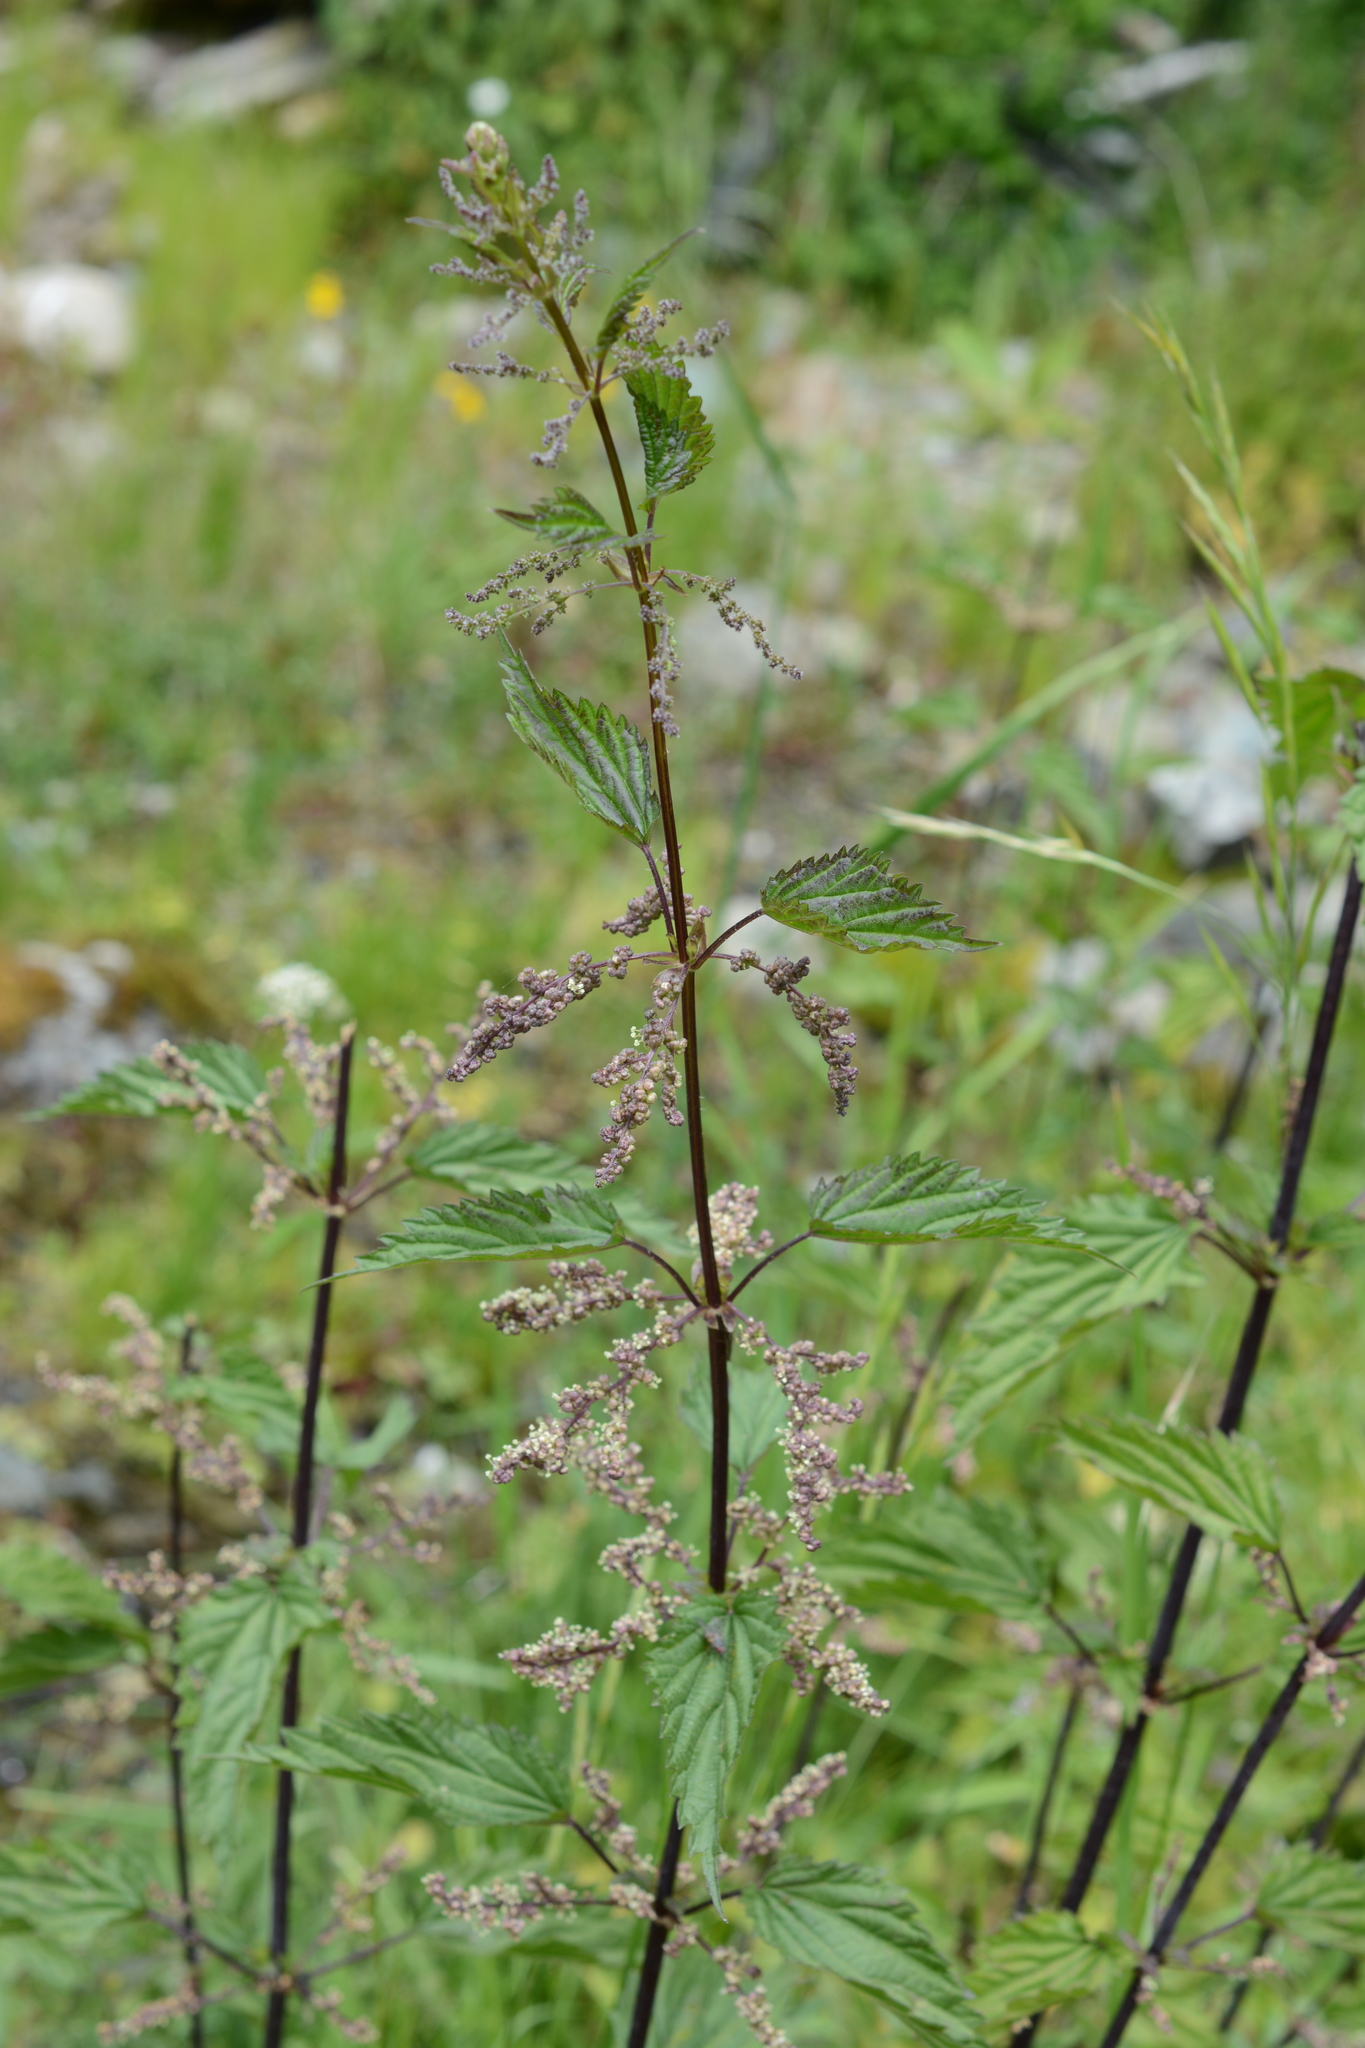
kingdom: Plantae
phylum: Tracheophyta
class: Magnoliopsida
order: Rosales
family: Urticaceae
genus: Urtica
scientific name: Urtica dioica
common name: Common nettle
